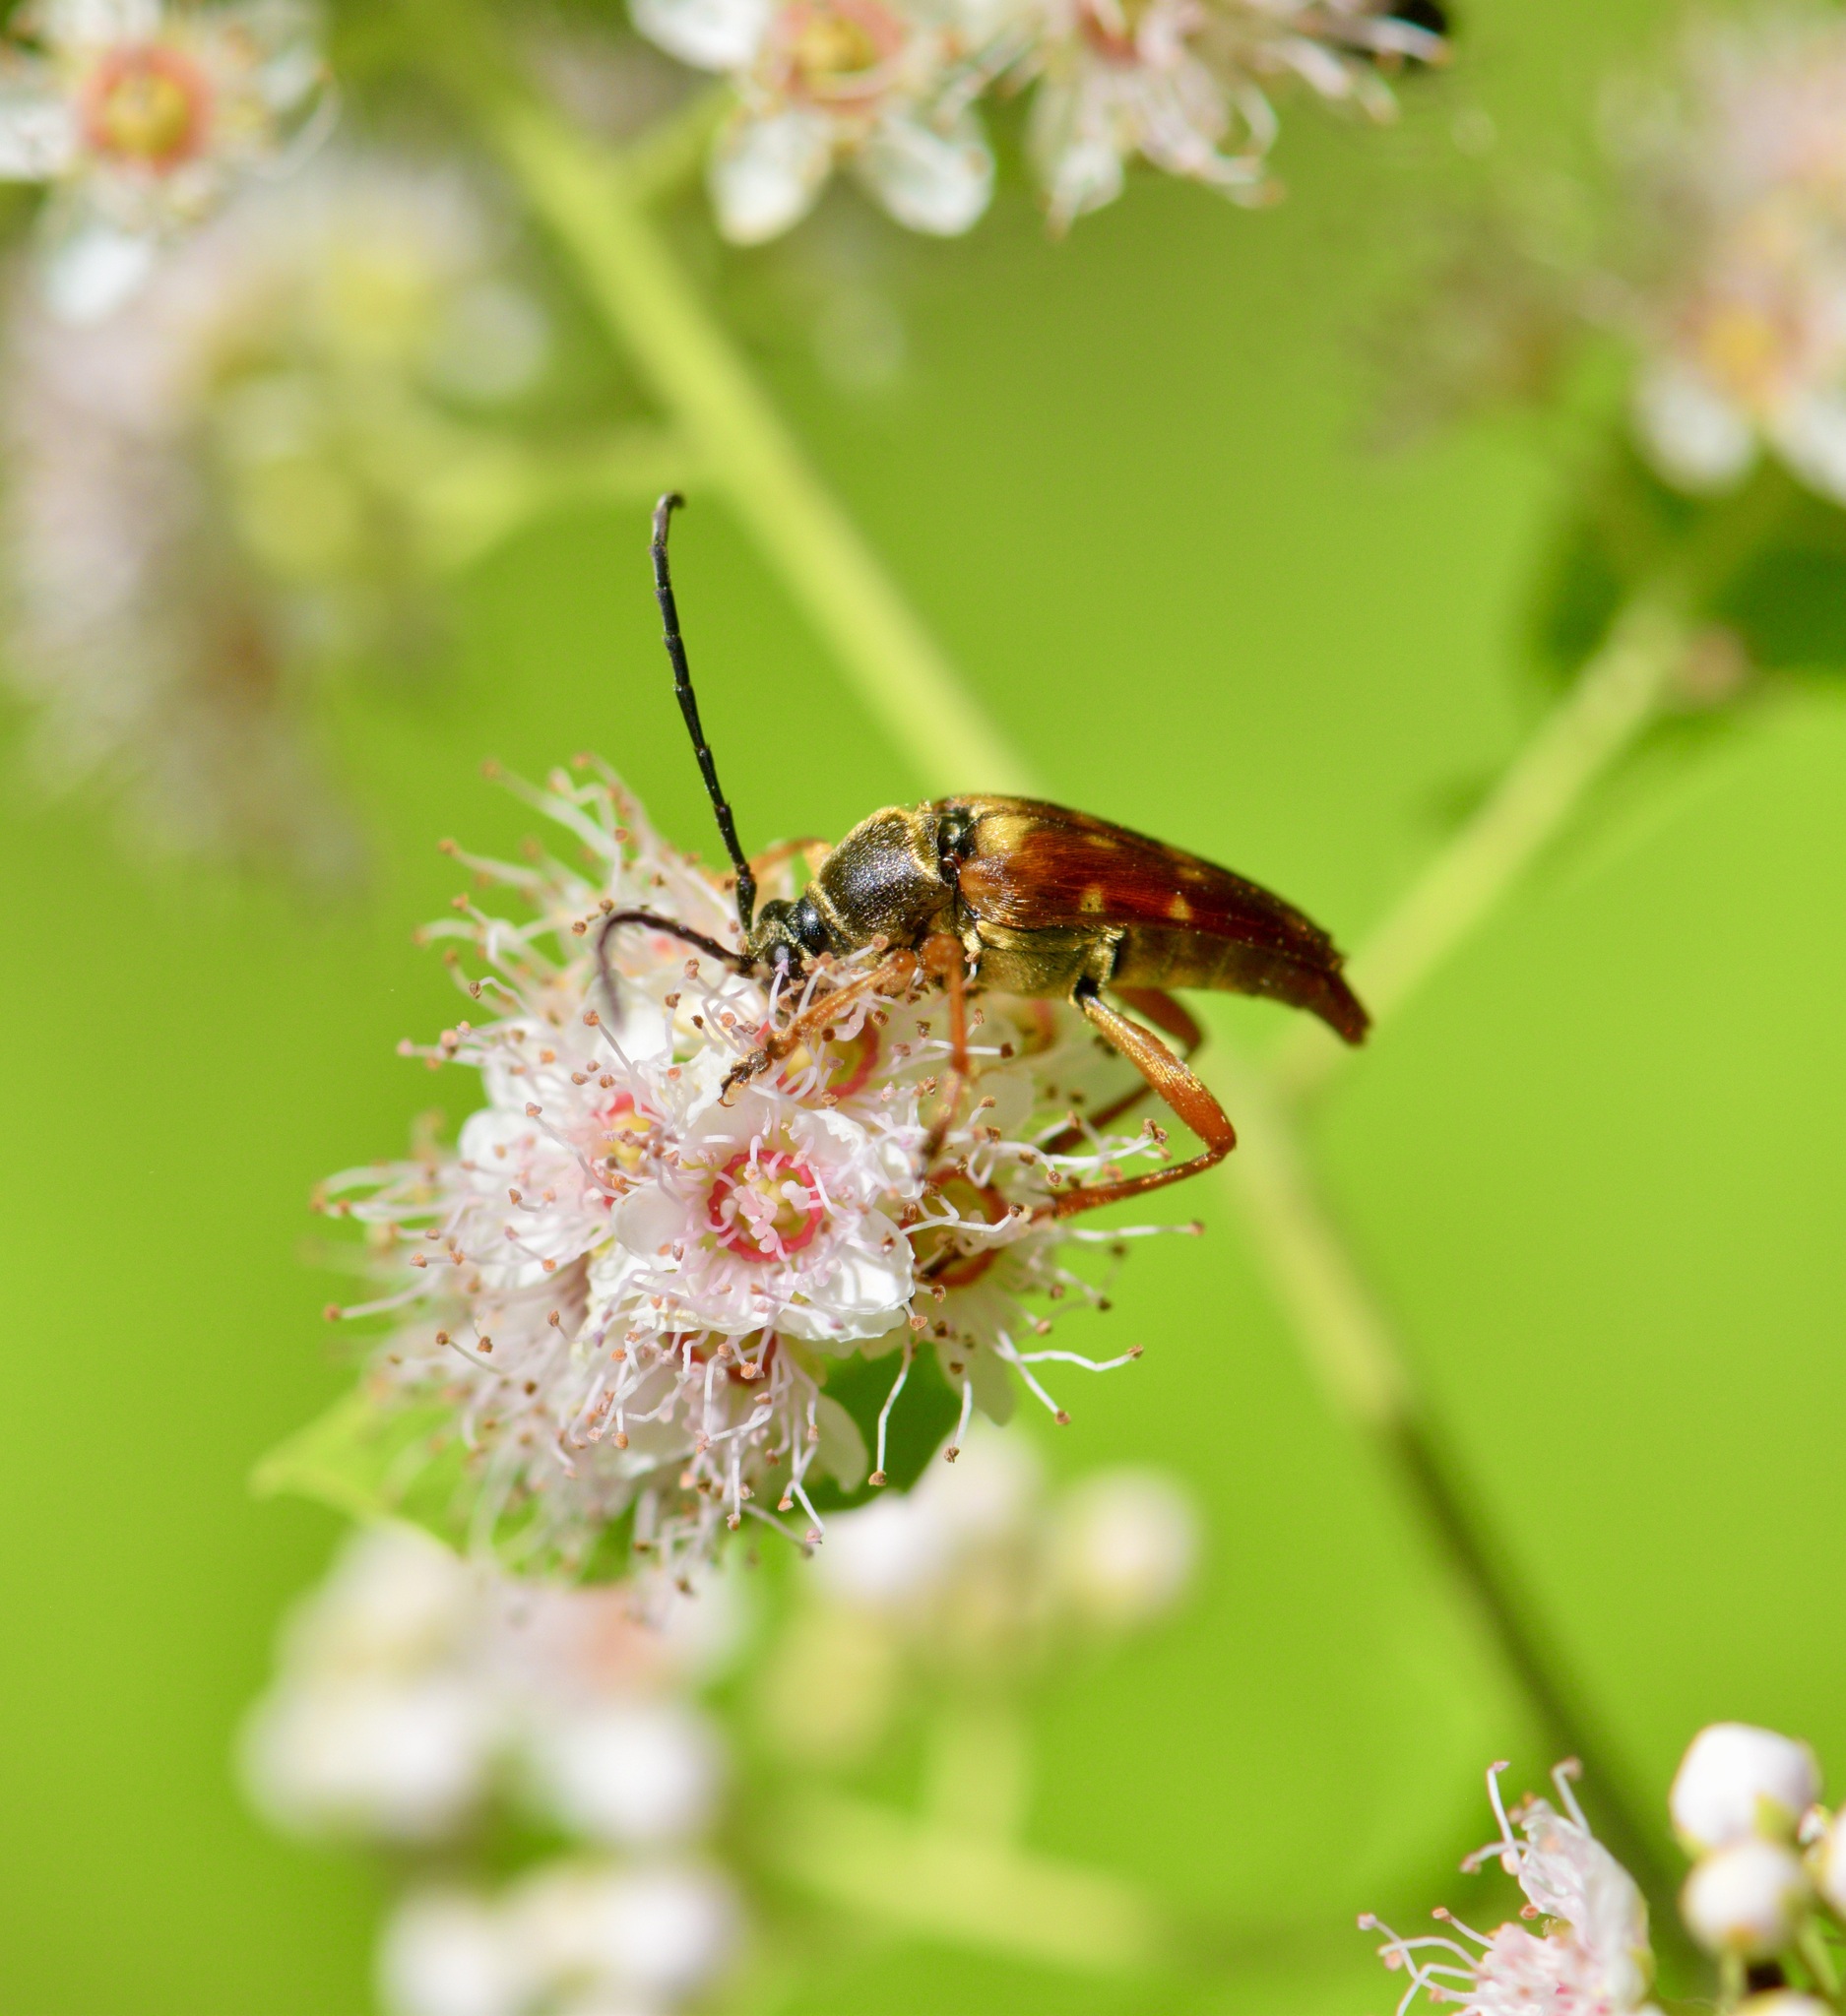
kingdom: Animalia
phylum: Arthropoda
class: Insecta
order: Coleoptera
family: Cerambycidae
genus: Typocerus
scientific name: Typocerus velutinus
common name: Banded longhorn beetle
